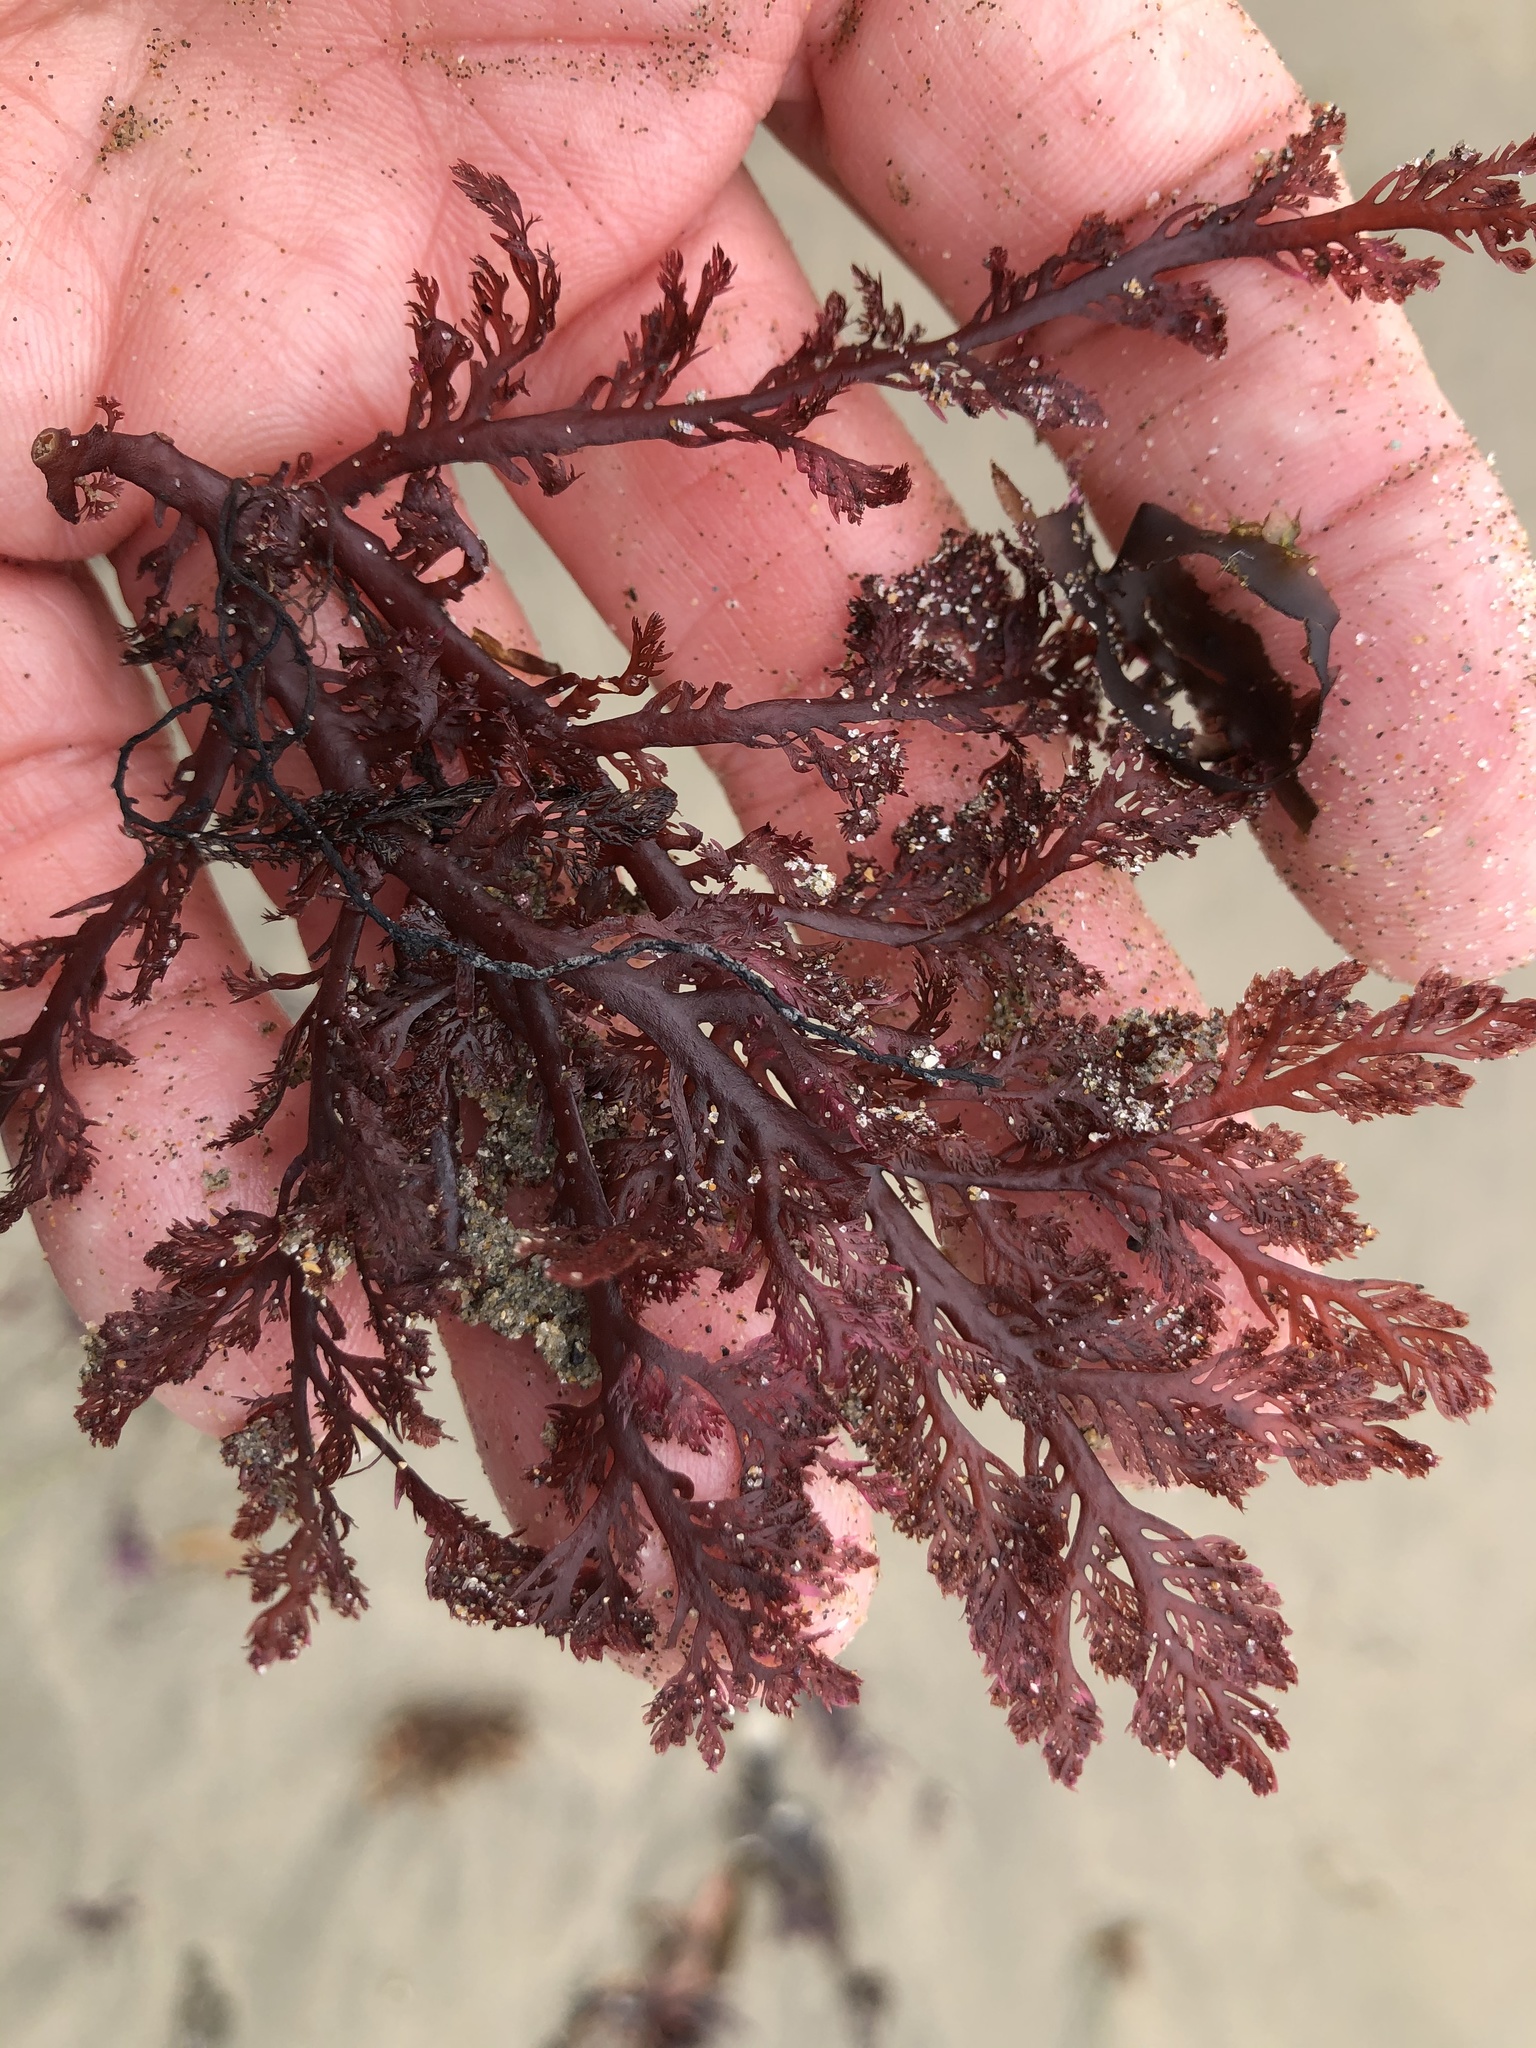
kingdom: Plantae
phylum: Rhodophyta
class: Florideophyceae
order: Plocamiales
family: Plocamiaceae
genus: Plocamium
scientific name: Plocamium cartilagineum
